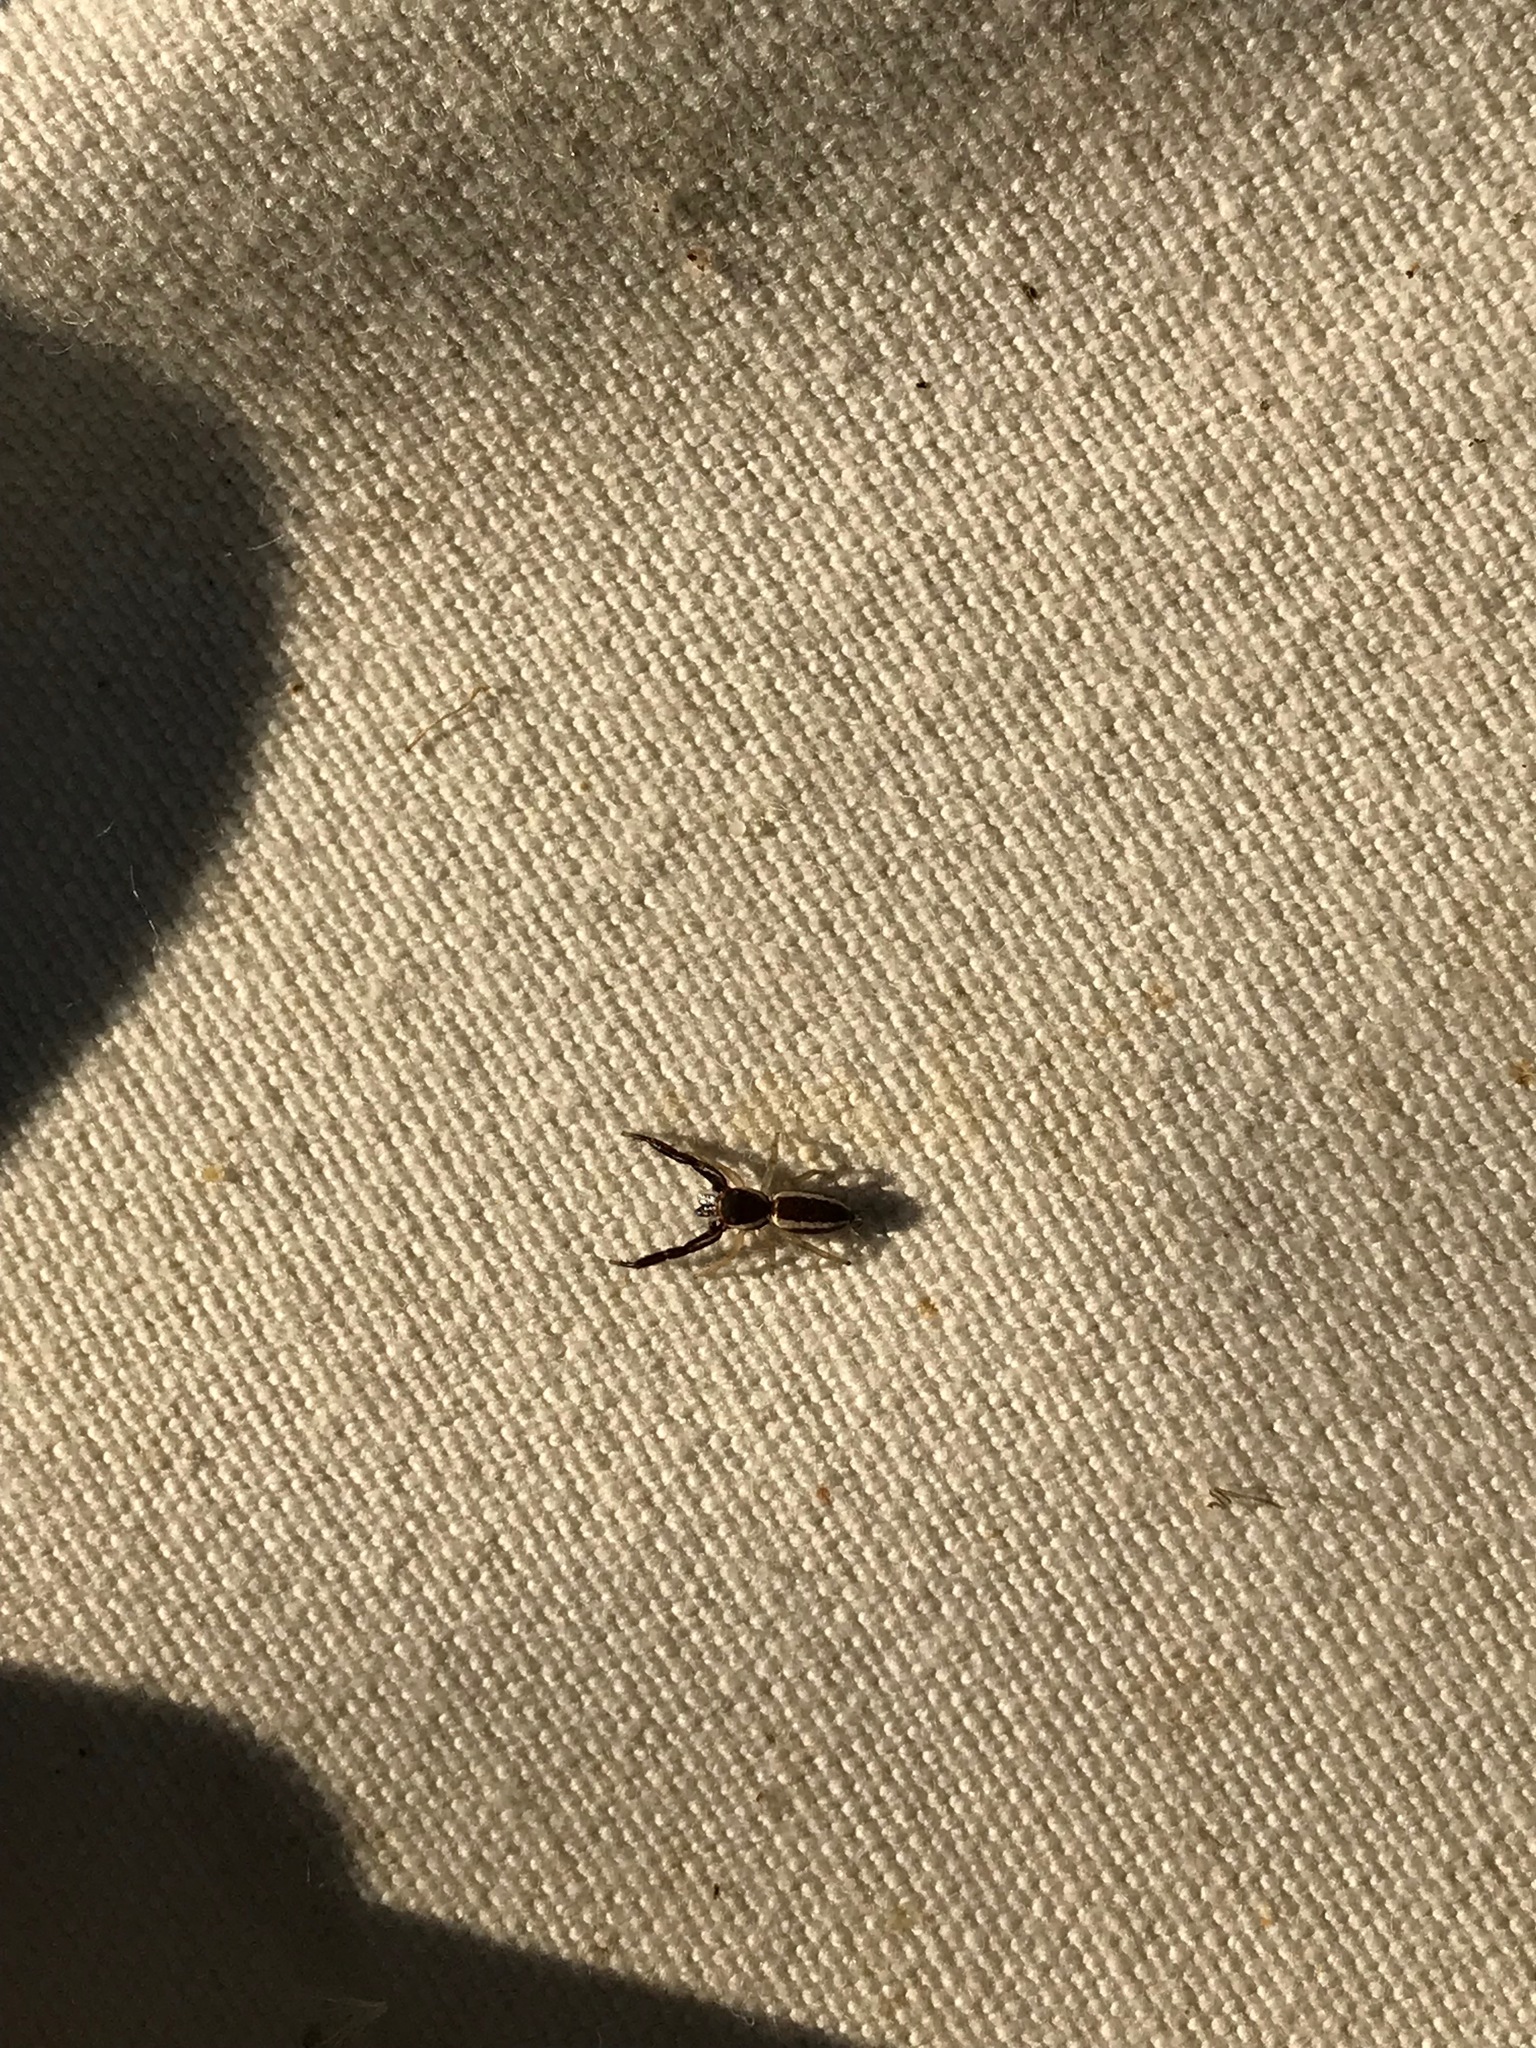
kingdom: Animalia
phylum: Arthropoda
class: Arachnida
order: Araneae
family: Salticidae
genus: Hentzia
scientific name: Hentzia palmarum
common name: Common hentz jumping spider
